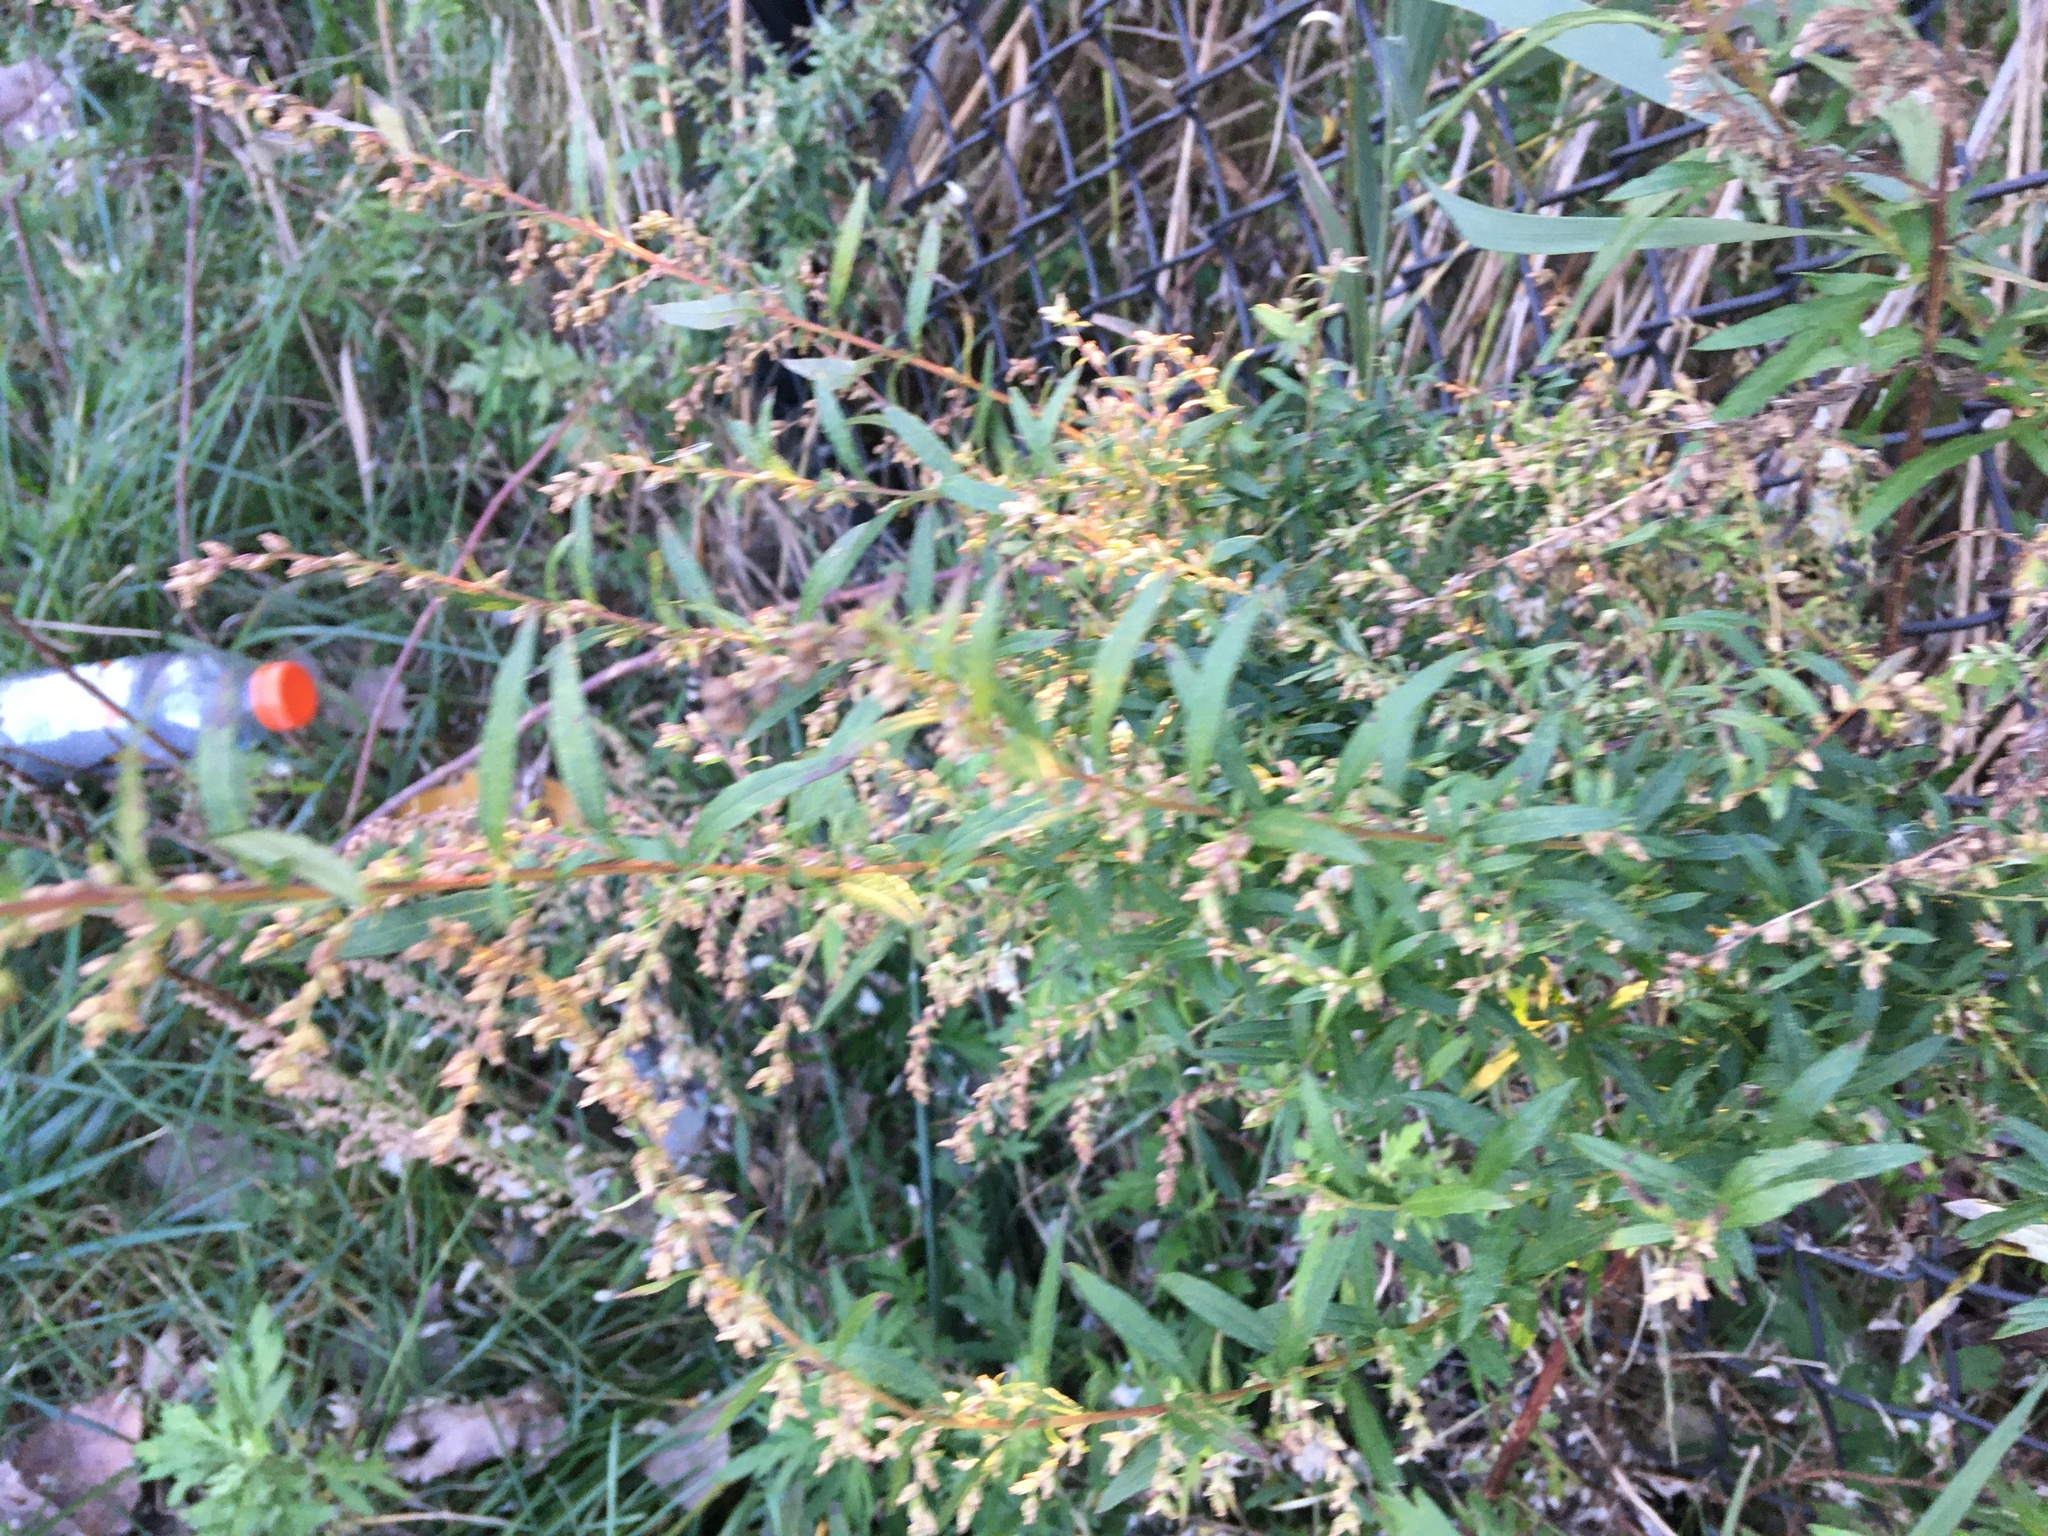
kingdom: Plantae
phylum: Tracheophyta
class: Magnoliopsida
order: Asterales
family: Asteraceae
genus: Artemisia
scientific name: Artemisia vulgaris
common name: Mugwort
